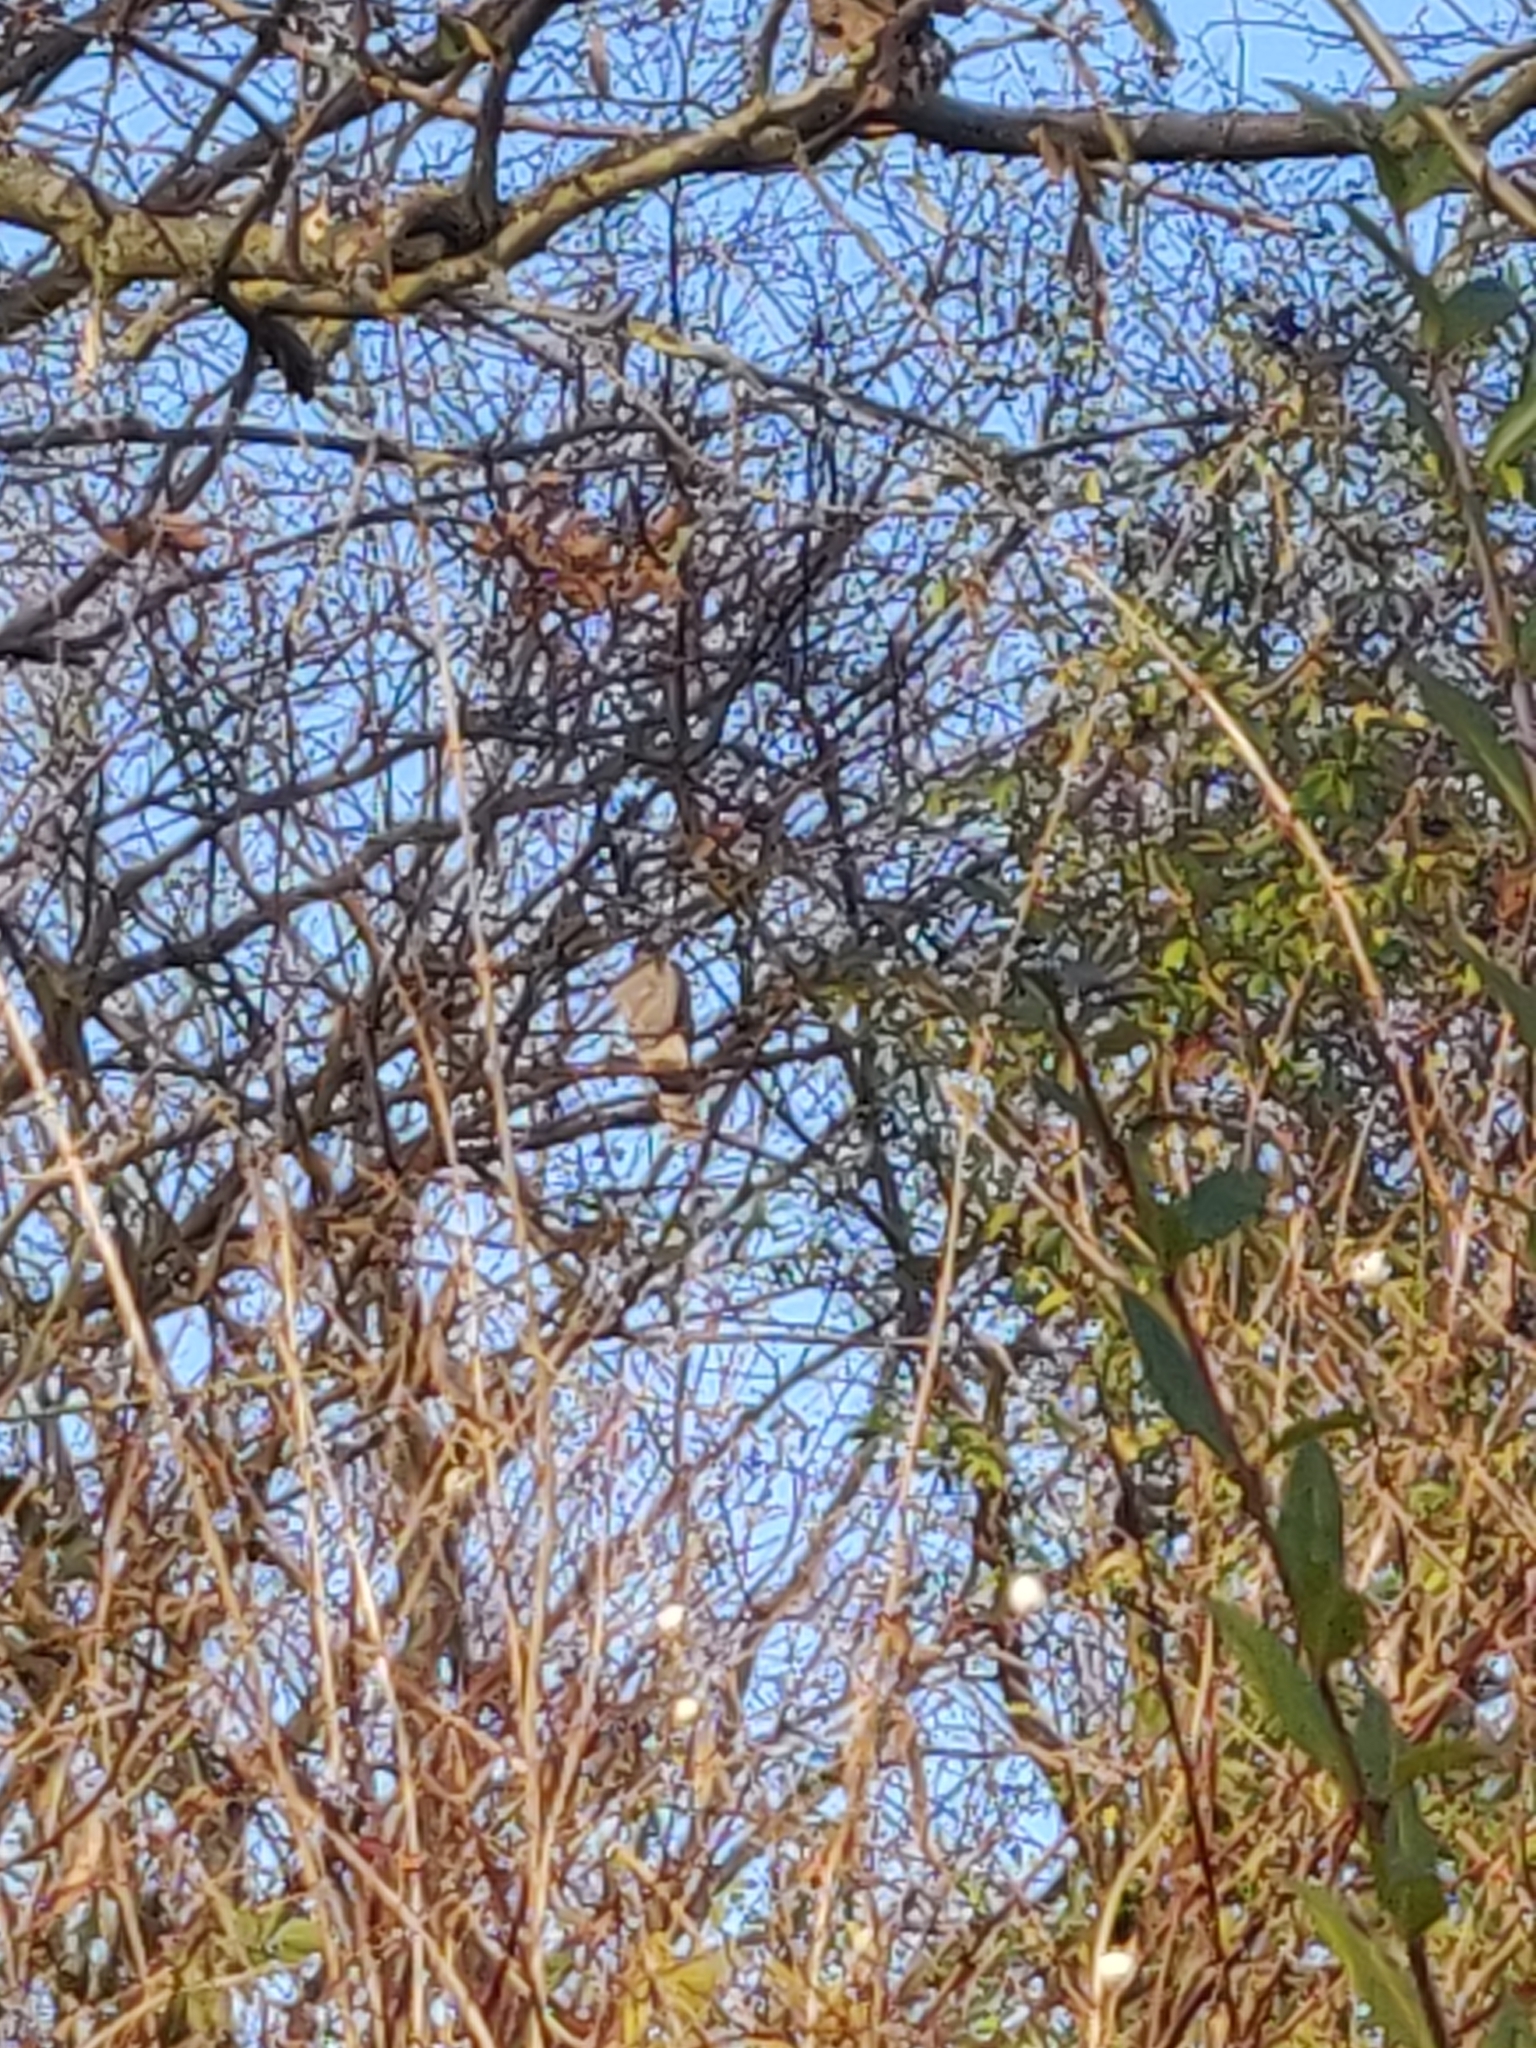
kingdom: Animalia
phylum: Chordata
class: Aves
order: Accipitriformes
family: Accipitridae
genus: Accipiter
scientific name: Accipiter nisus
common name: Eurasian sparrowhawk
